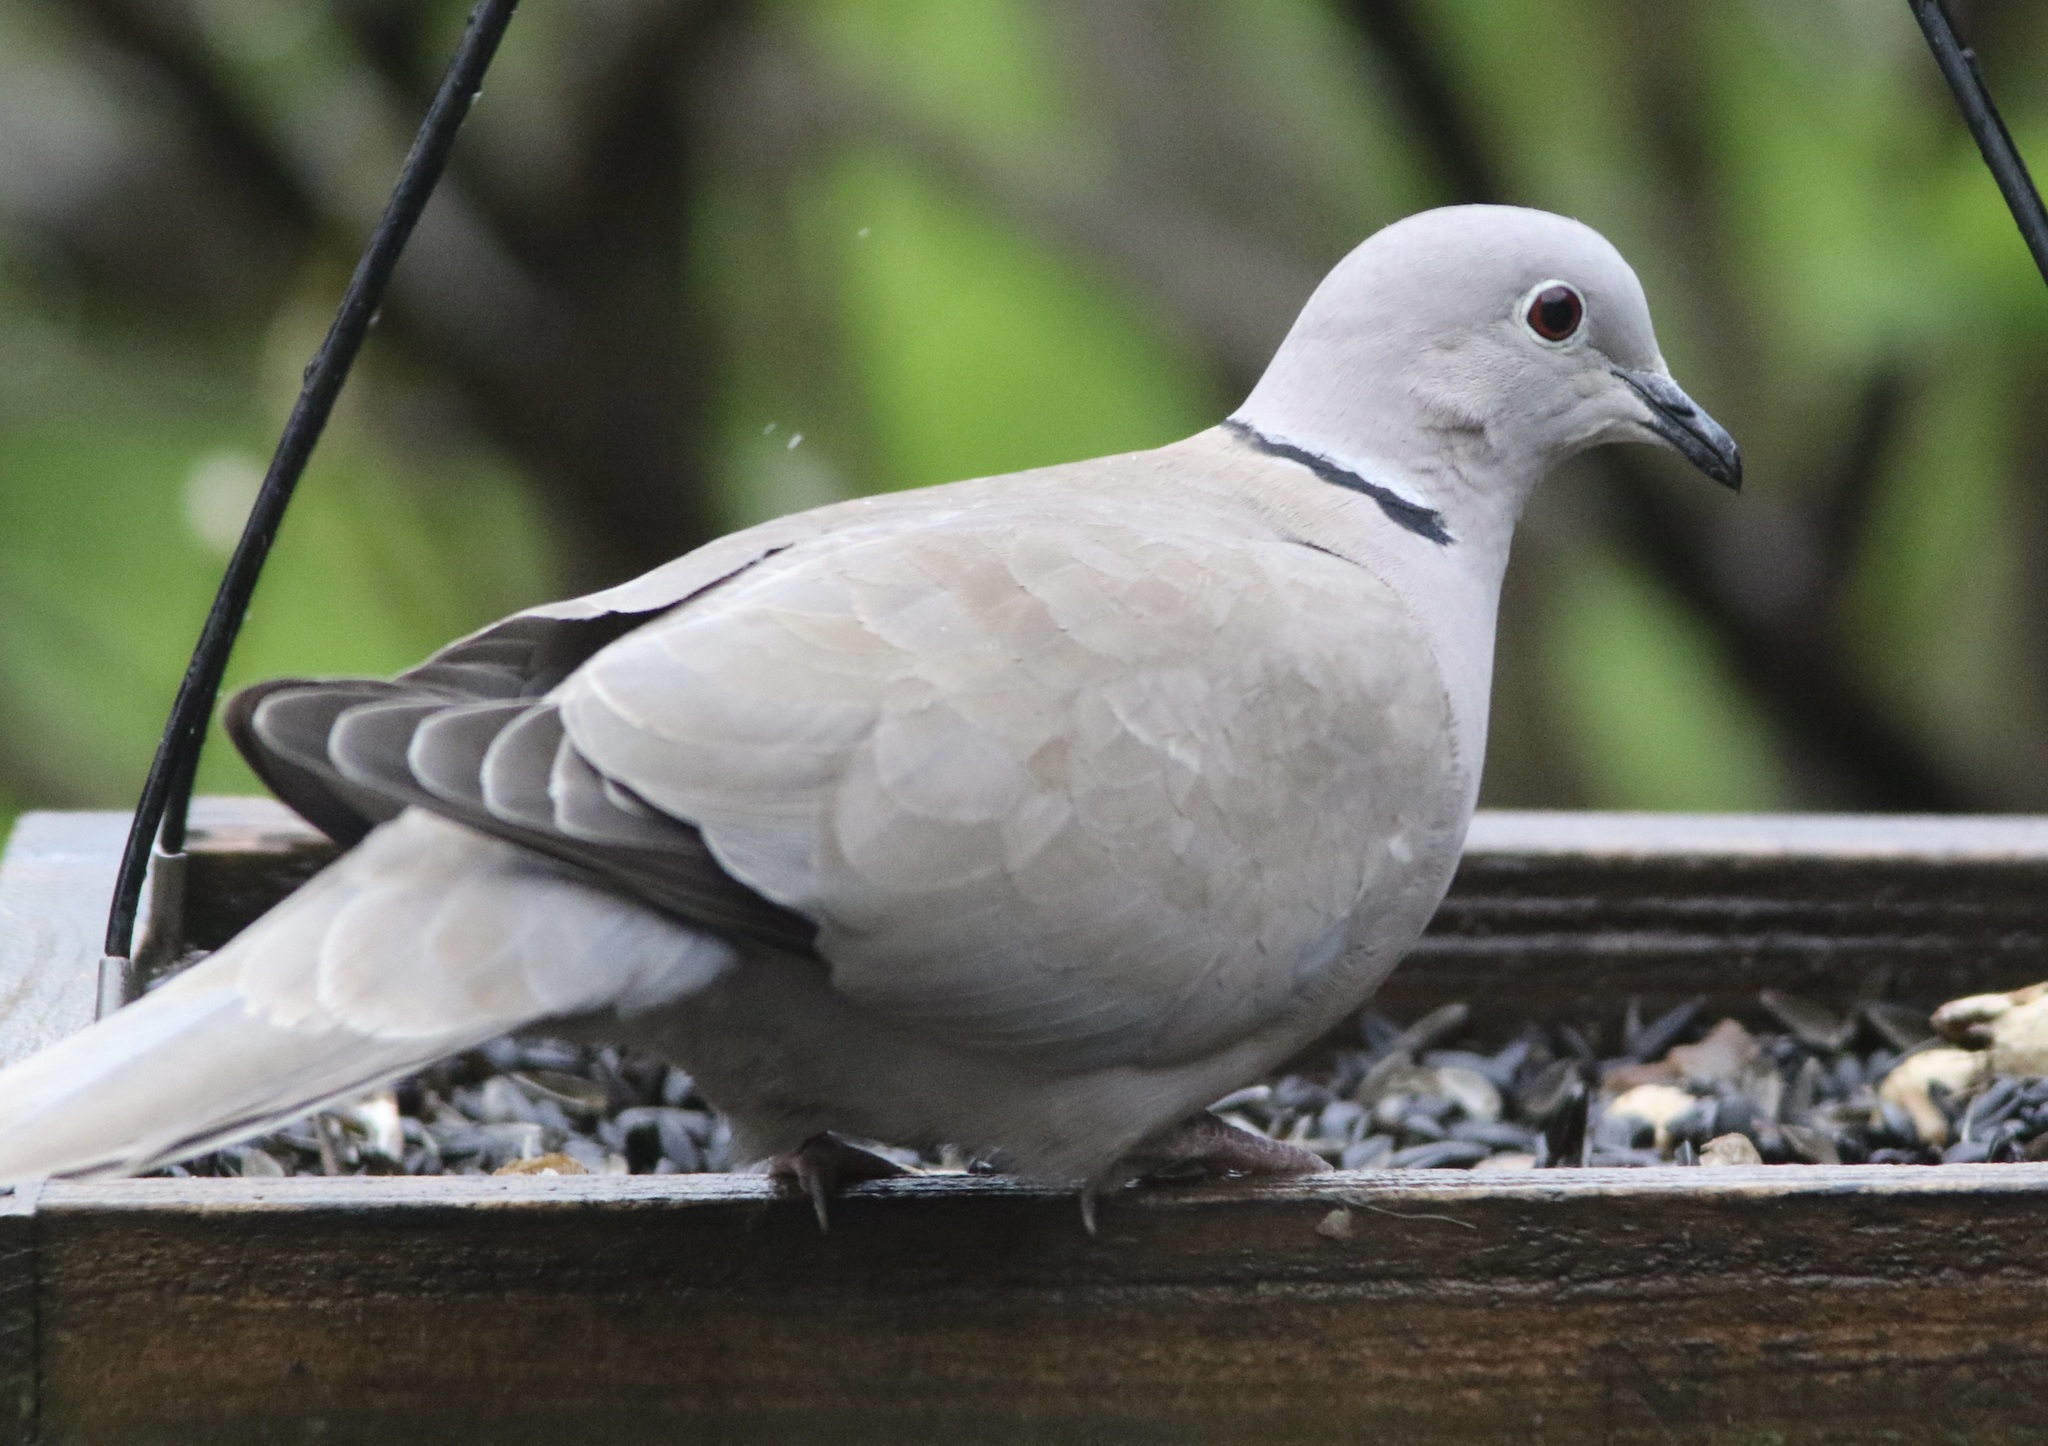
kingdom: Animalia
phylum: Chordata
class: Aves
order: Columbiformes
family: Columbidae
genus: Streptopelia
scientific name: Streptopelia decaocto
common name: Eurasian collared dove
